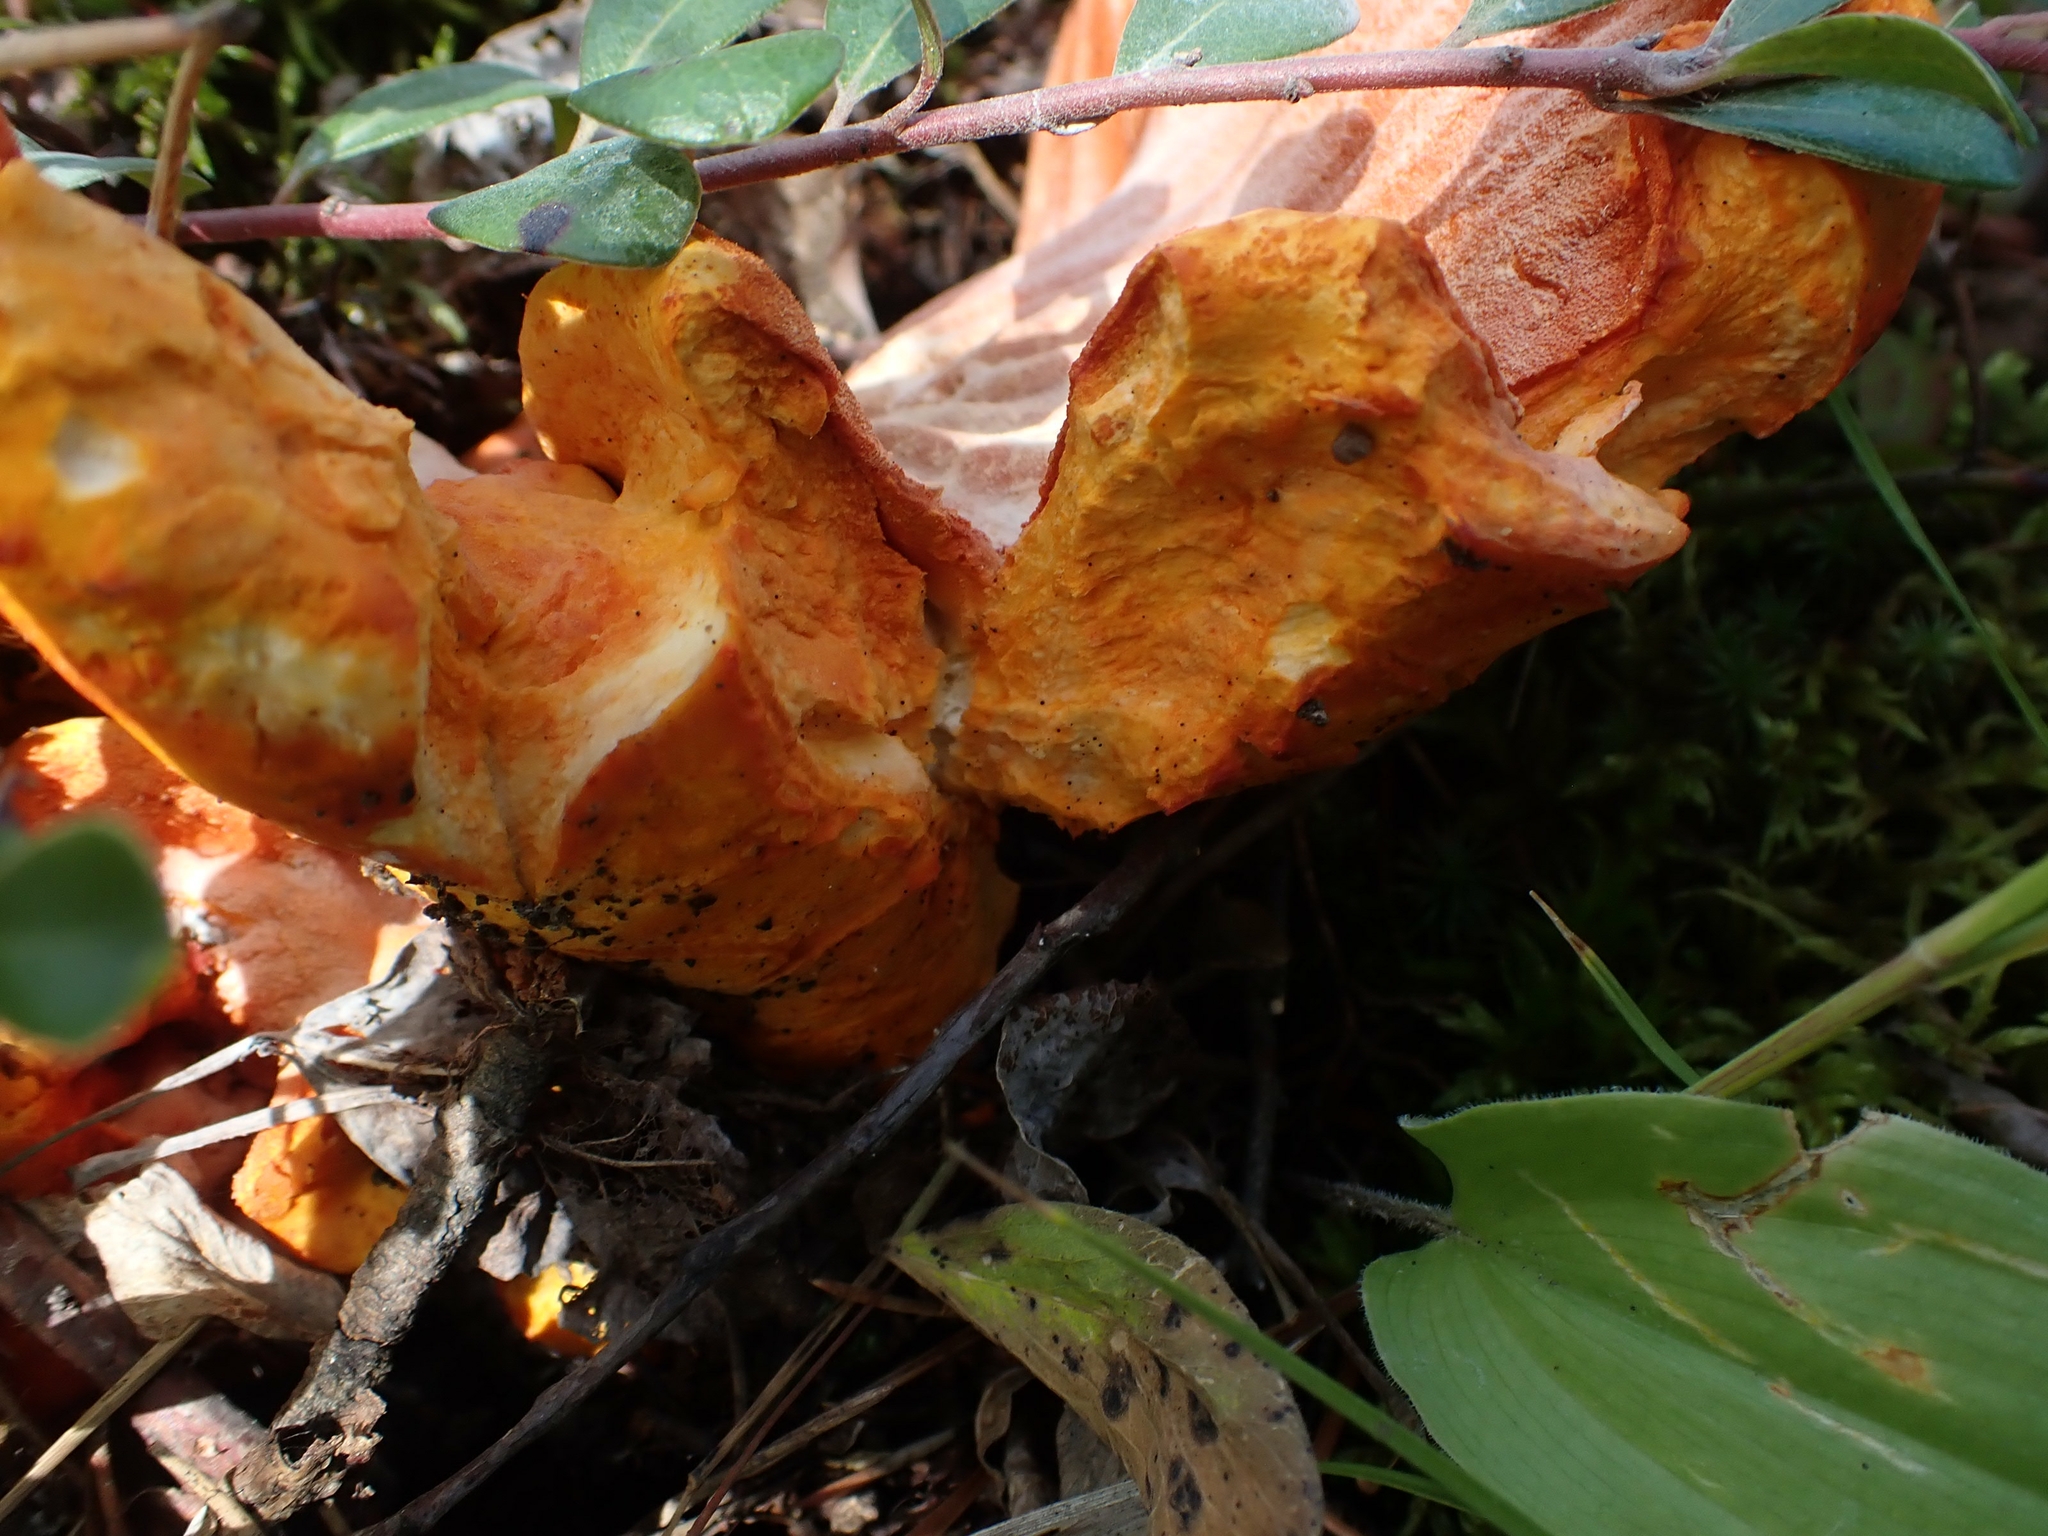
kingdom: Fungi
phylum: Ascomycota
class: Sordariomycetes
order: Hypocreales
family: Hypocreaceae
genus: Hypomyces
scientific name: Hypomyces lactifluorum
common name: Lobster mushroom
